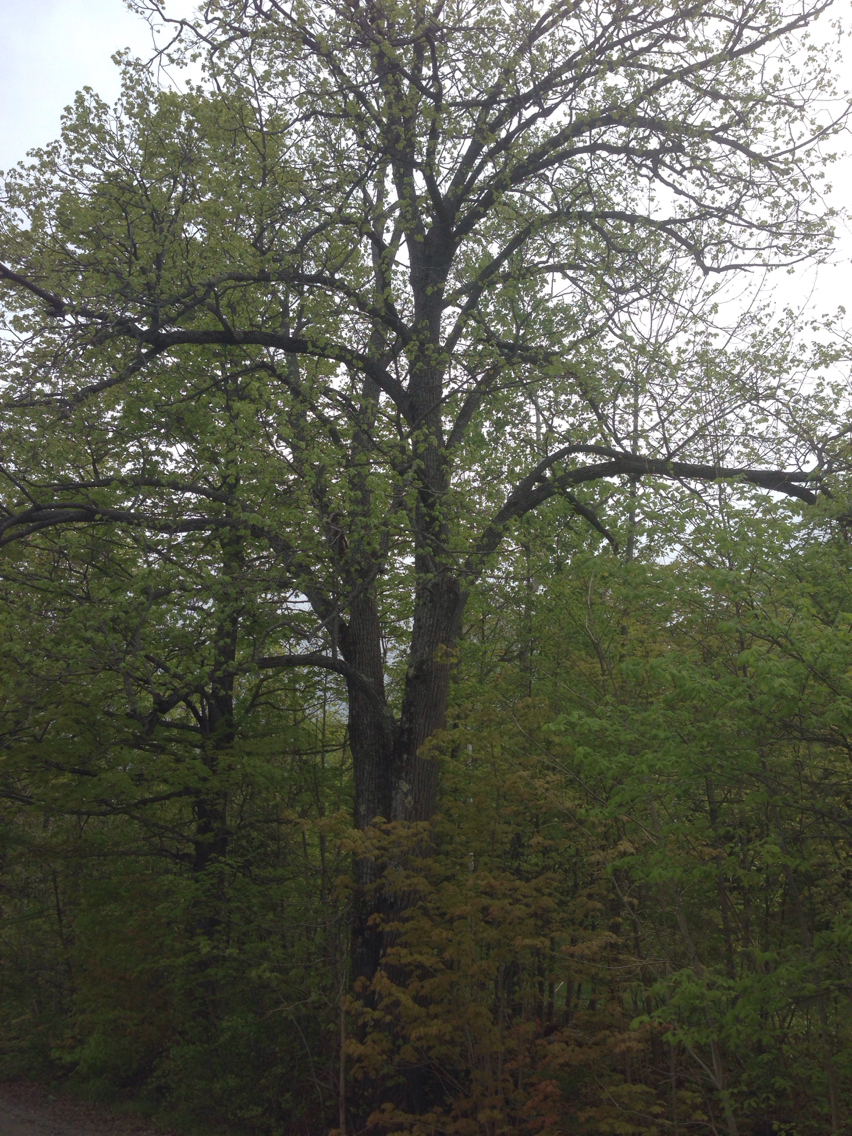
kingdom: Plantae
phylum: Tracheophyta
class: Magnoliopsida
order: Malvales
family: Malvaceae
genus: Tilia
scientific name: Tilia americana
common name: Basswood
